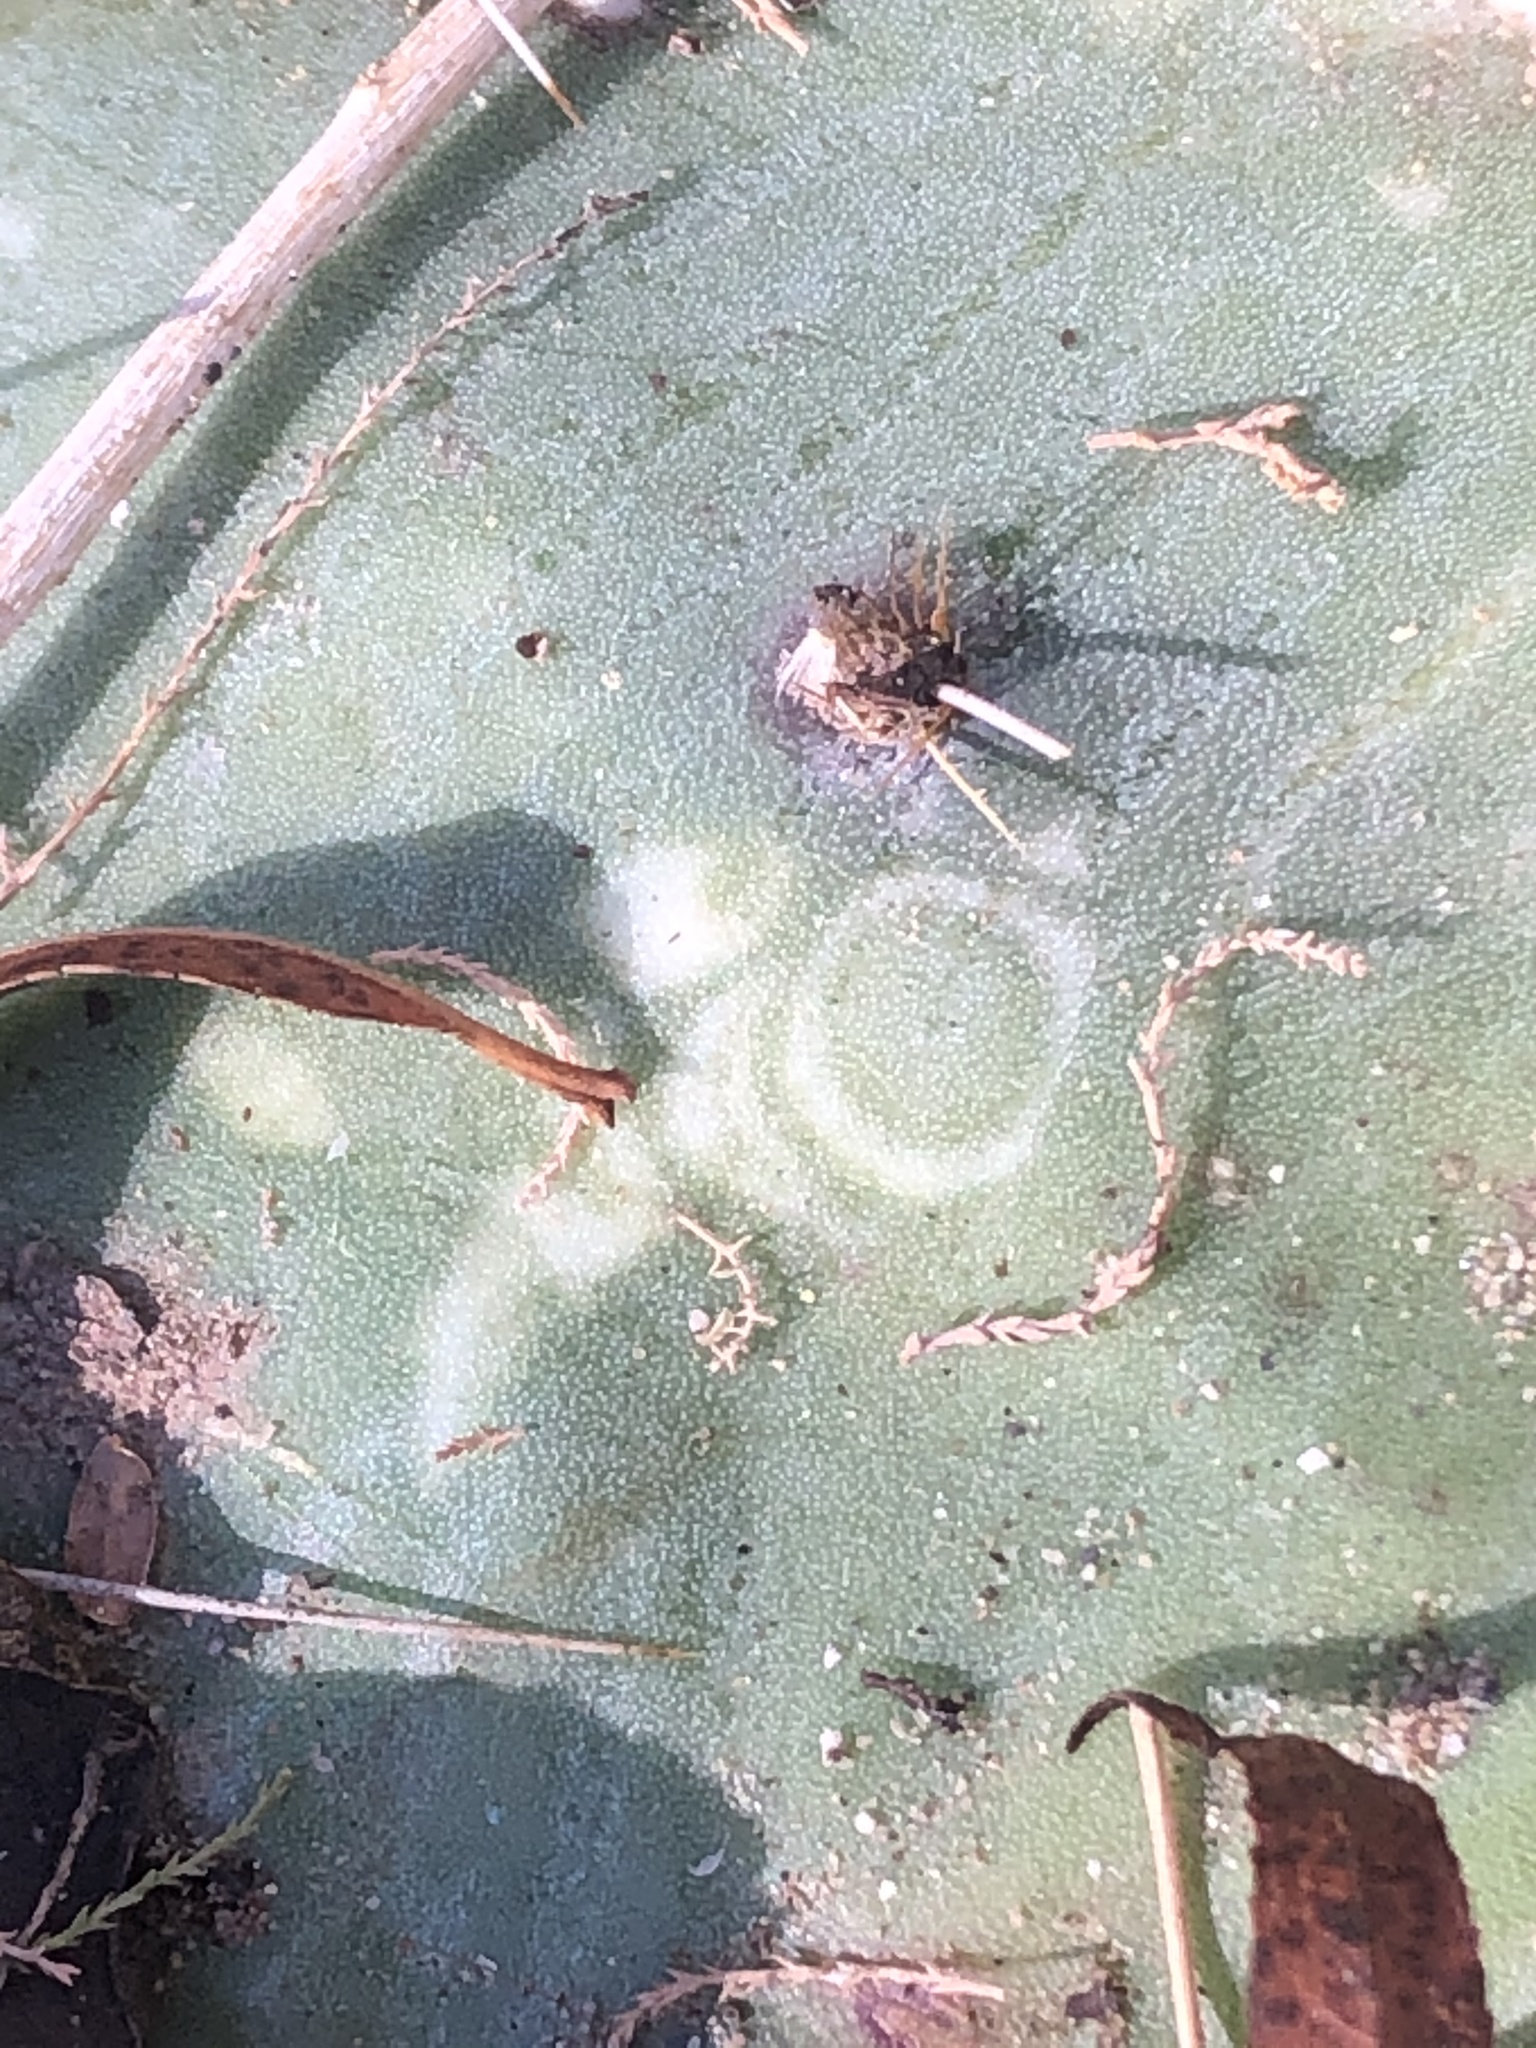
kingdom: Viruses
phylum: Kitrinoviricota
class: Alsuviricetes
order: Martellivirales
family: Virgaviridae
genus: Tobamovirus
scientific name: Tobamovirus Opuntia chlorotic ringspot virus
